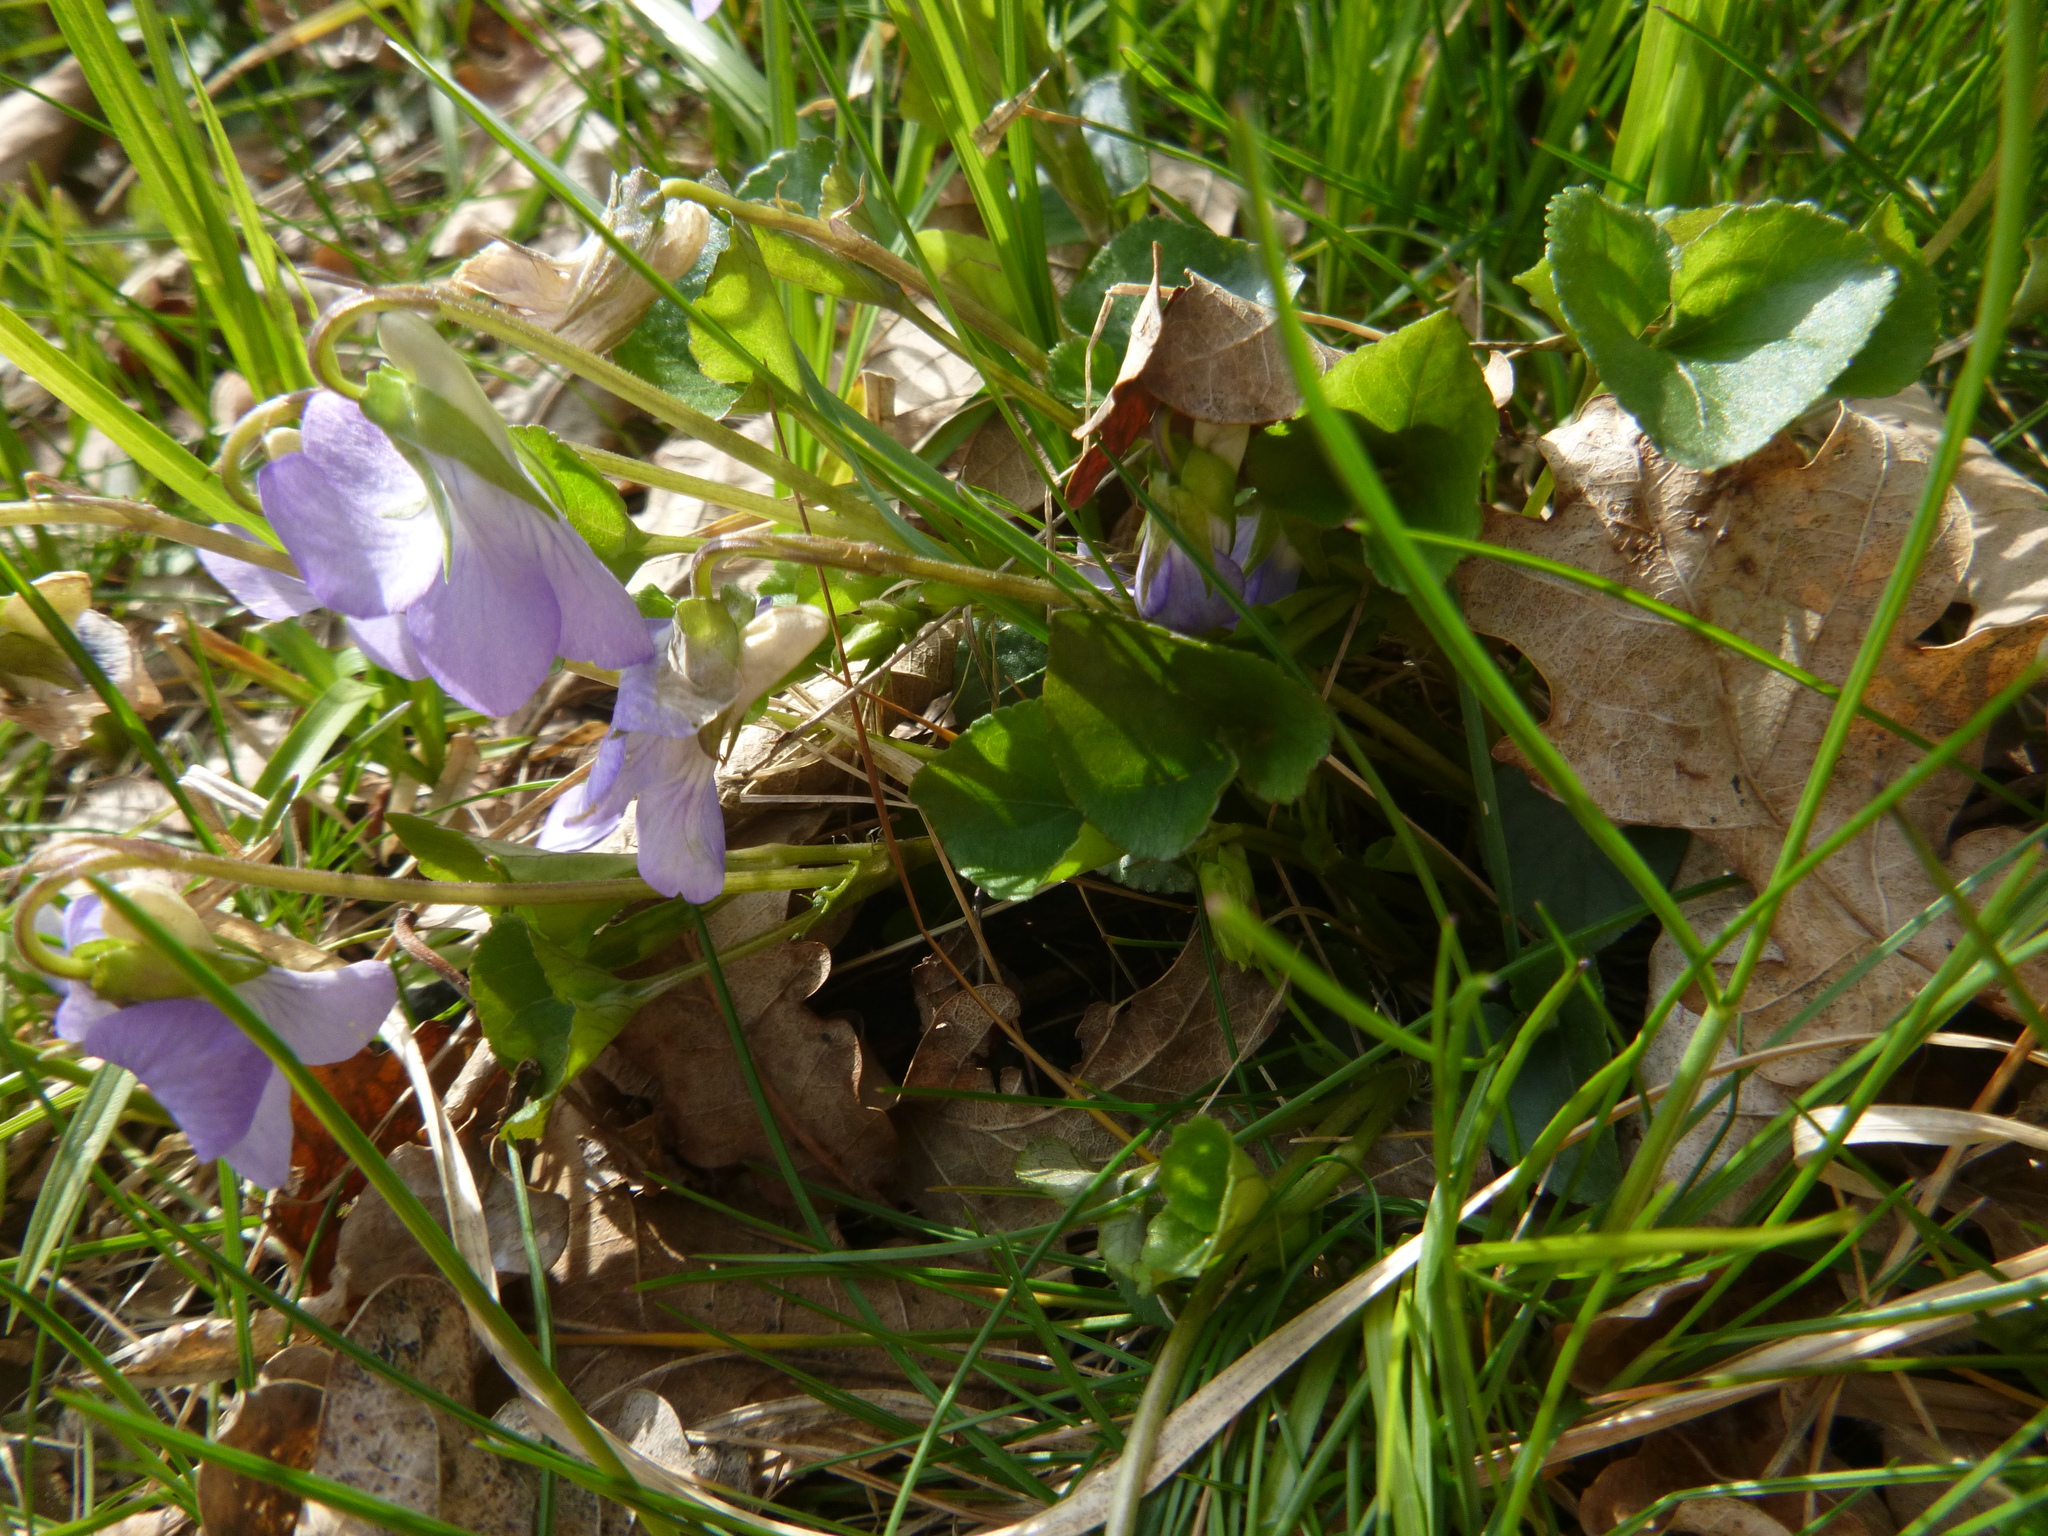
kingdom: Plantae
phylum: Tracheophyta
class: Magnoliopsida
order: Malpighiales
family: Violaceae
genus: Viola
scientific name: Viola riviniana
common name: Common dog-violet
